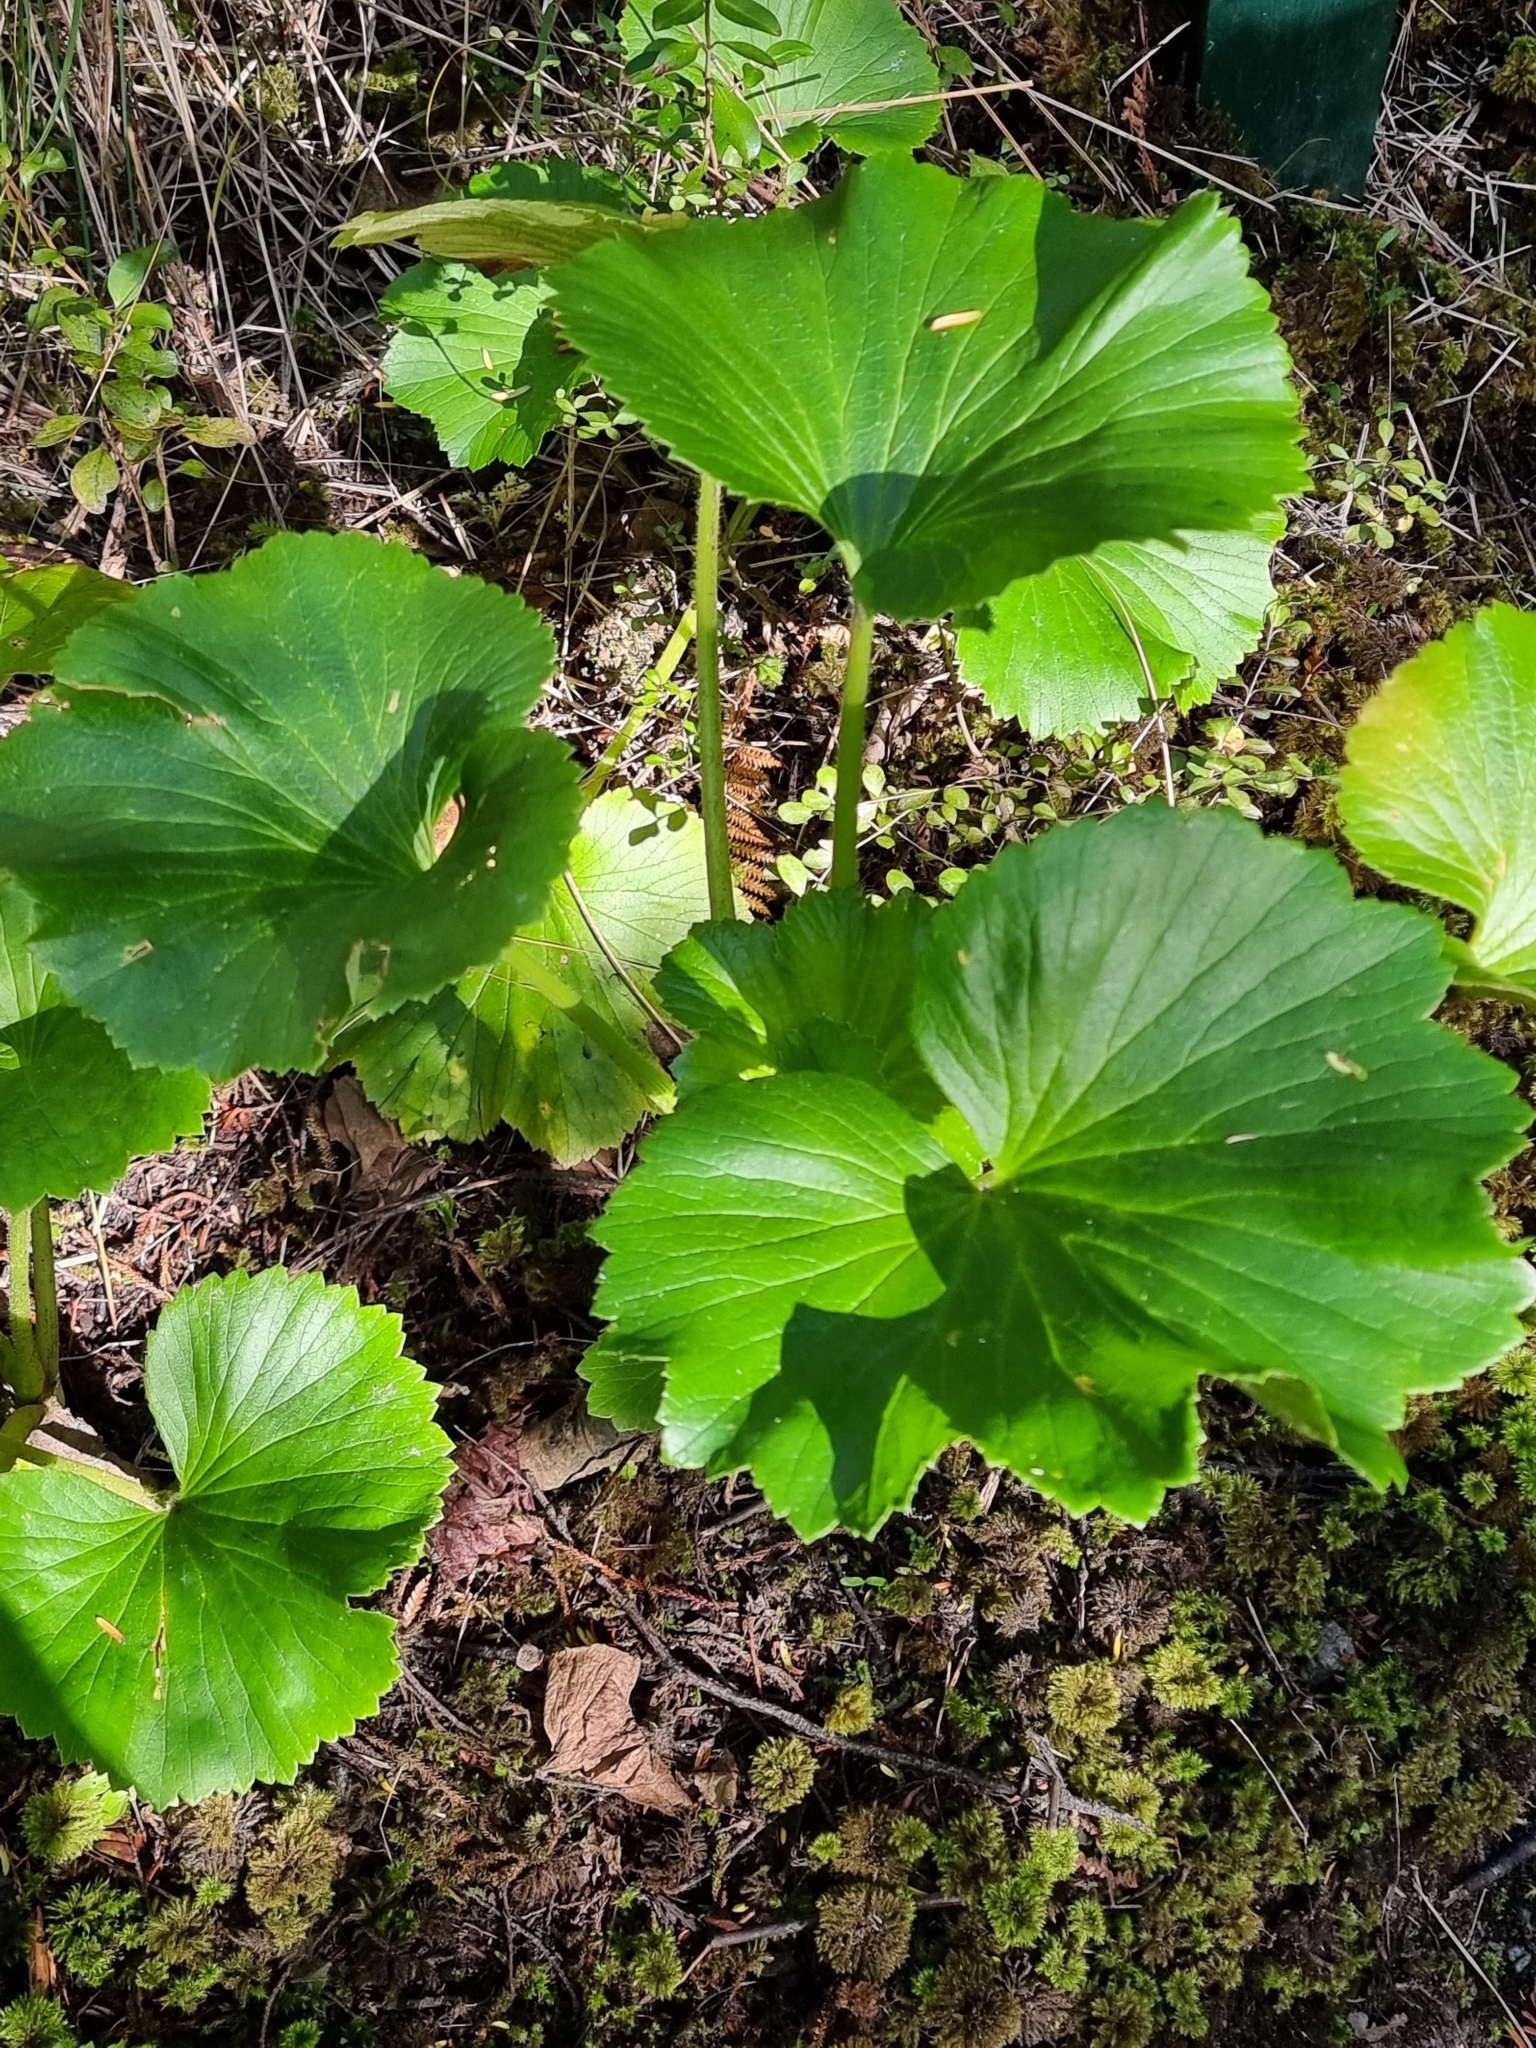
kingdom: Plantae
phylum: Tracheophyta
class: Magnoliopsida
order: Apiales
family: Apiaceae
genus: Azorella
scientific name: Azorella lyallii
